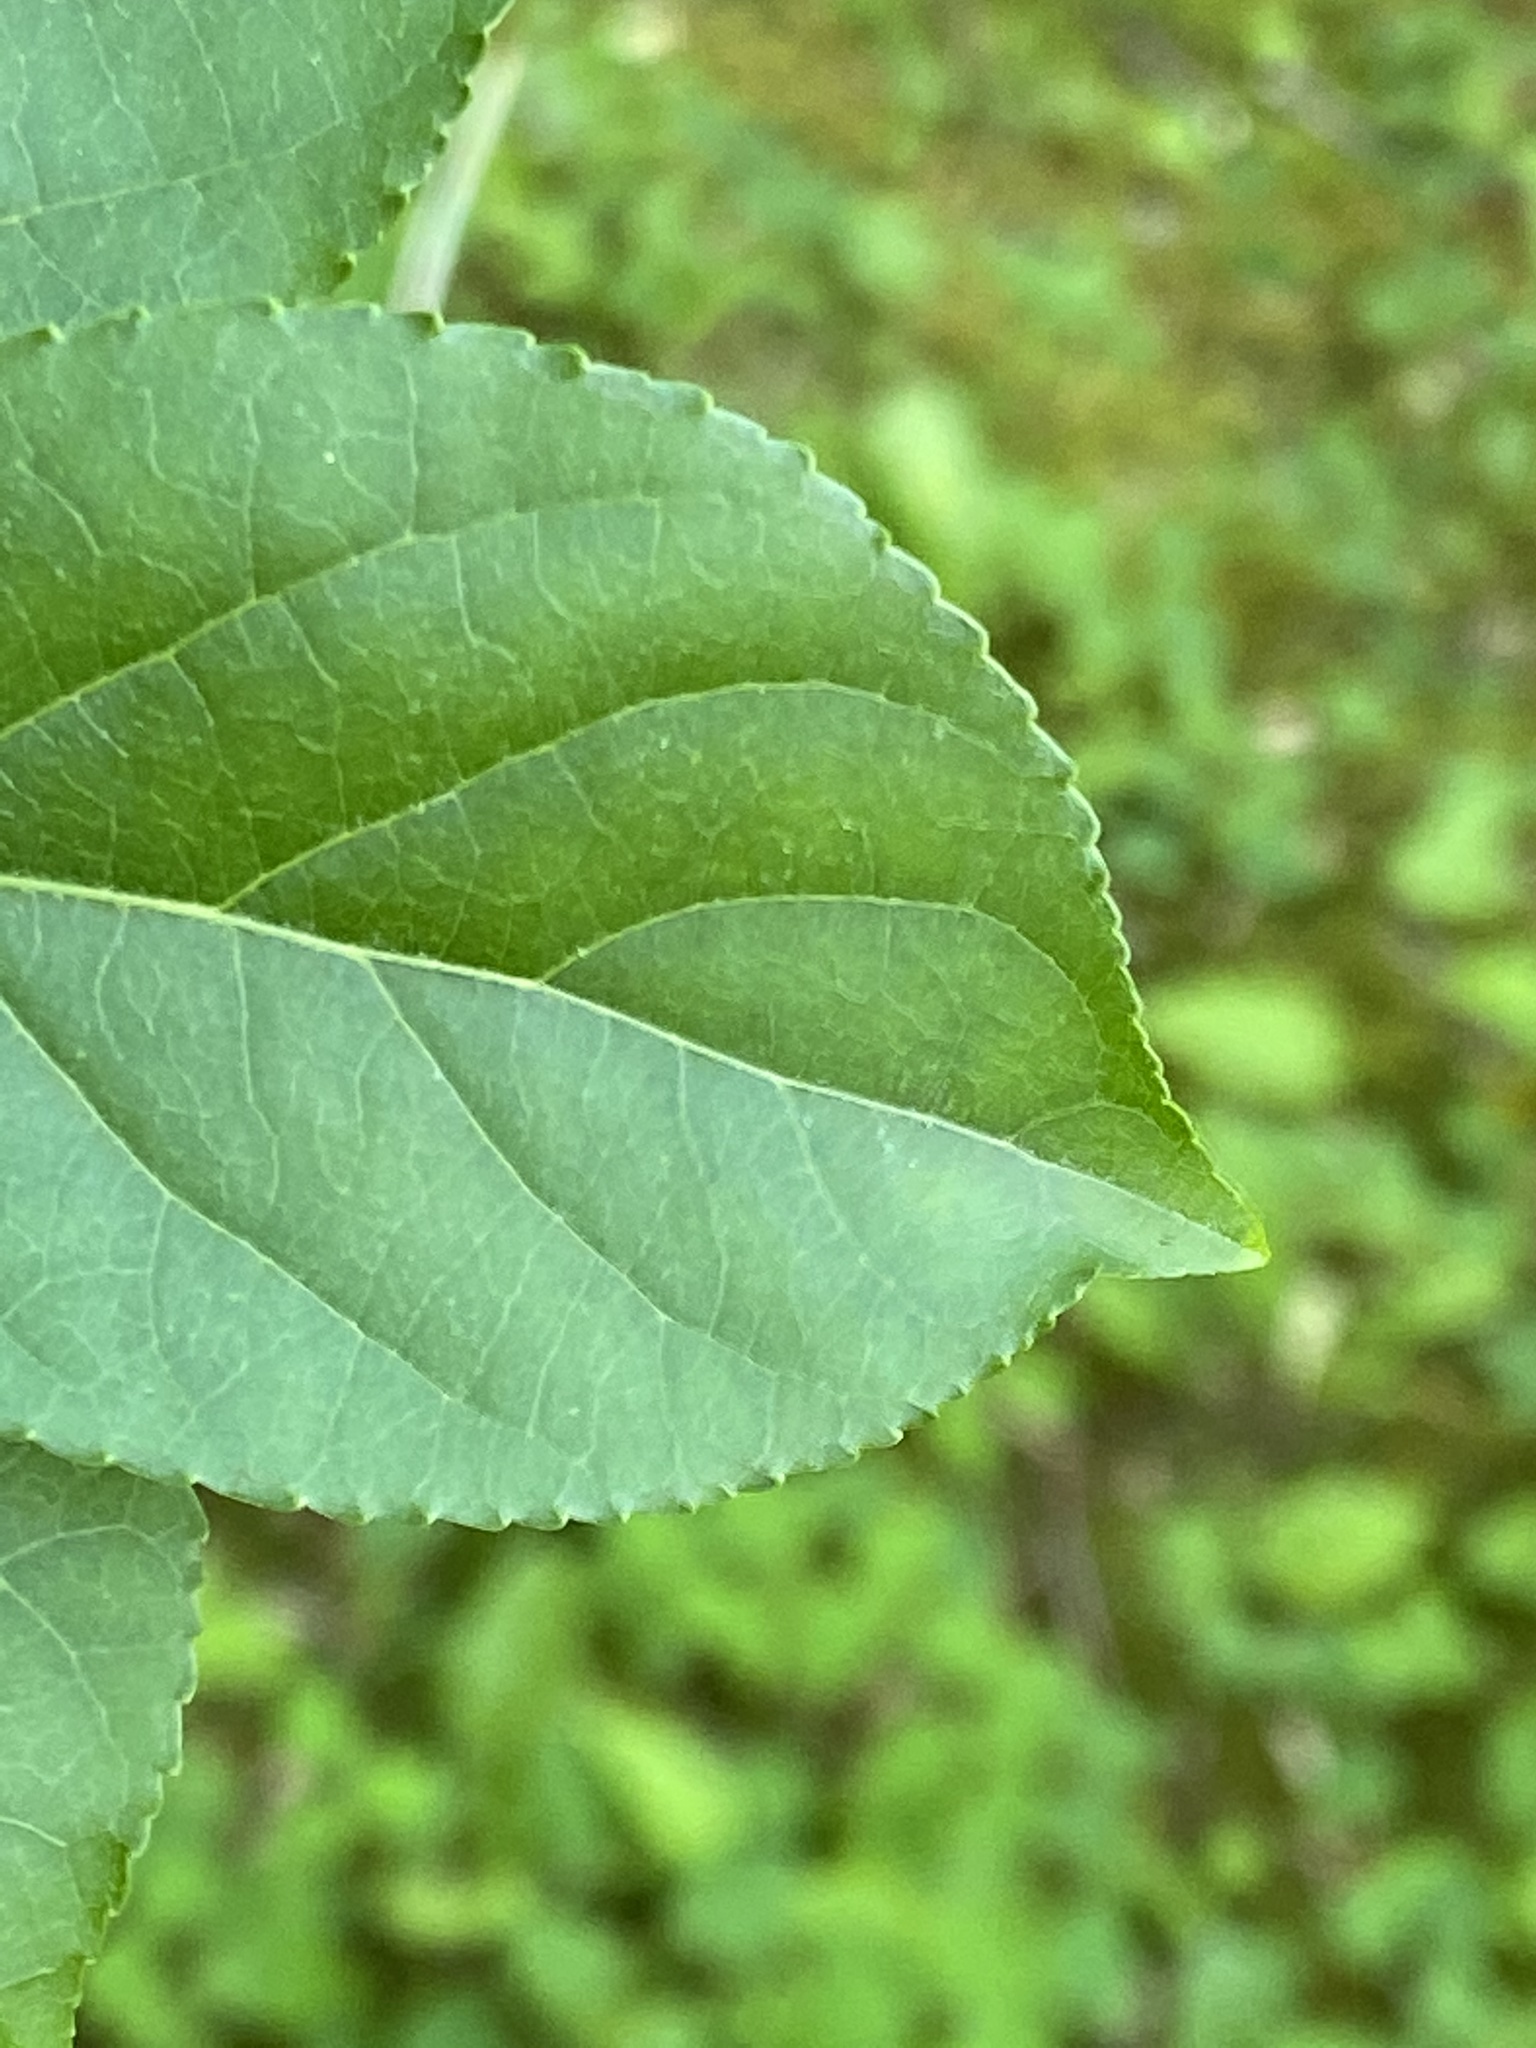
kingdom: Plantae
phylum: Tracheophyta
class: Magnoliopsida
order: Celastrales
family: Celastraceae
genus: Celastrus
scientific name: Celastrus orbiculatus
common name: Oriental bittersweet
